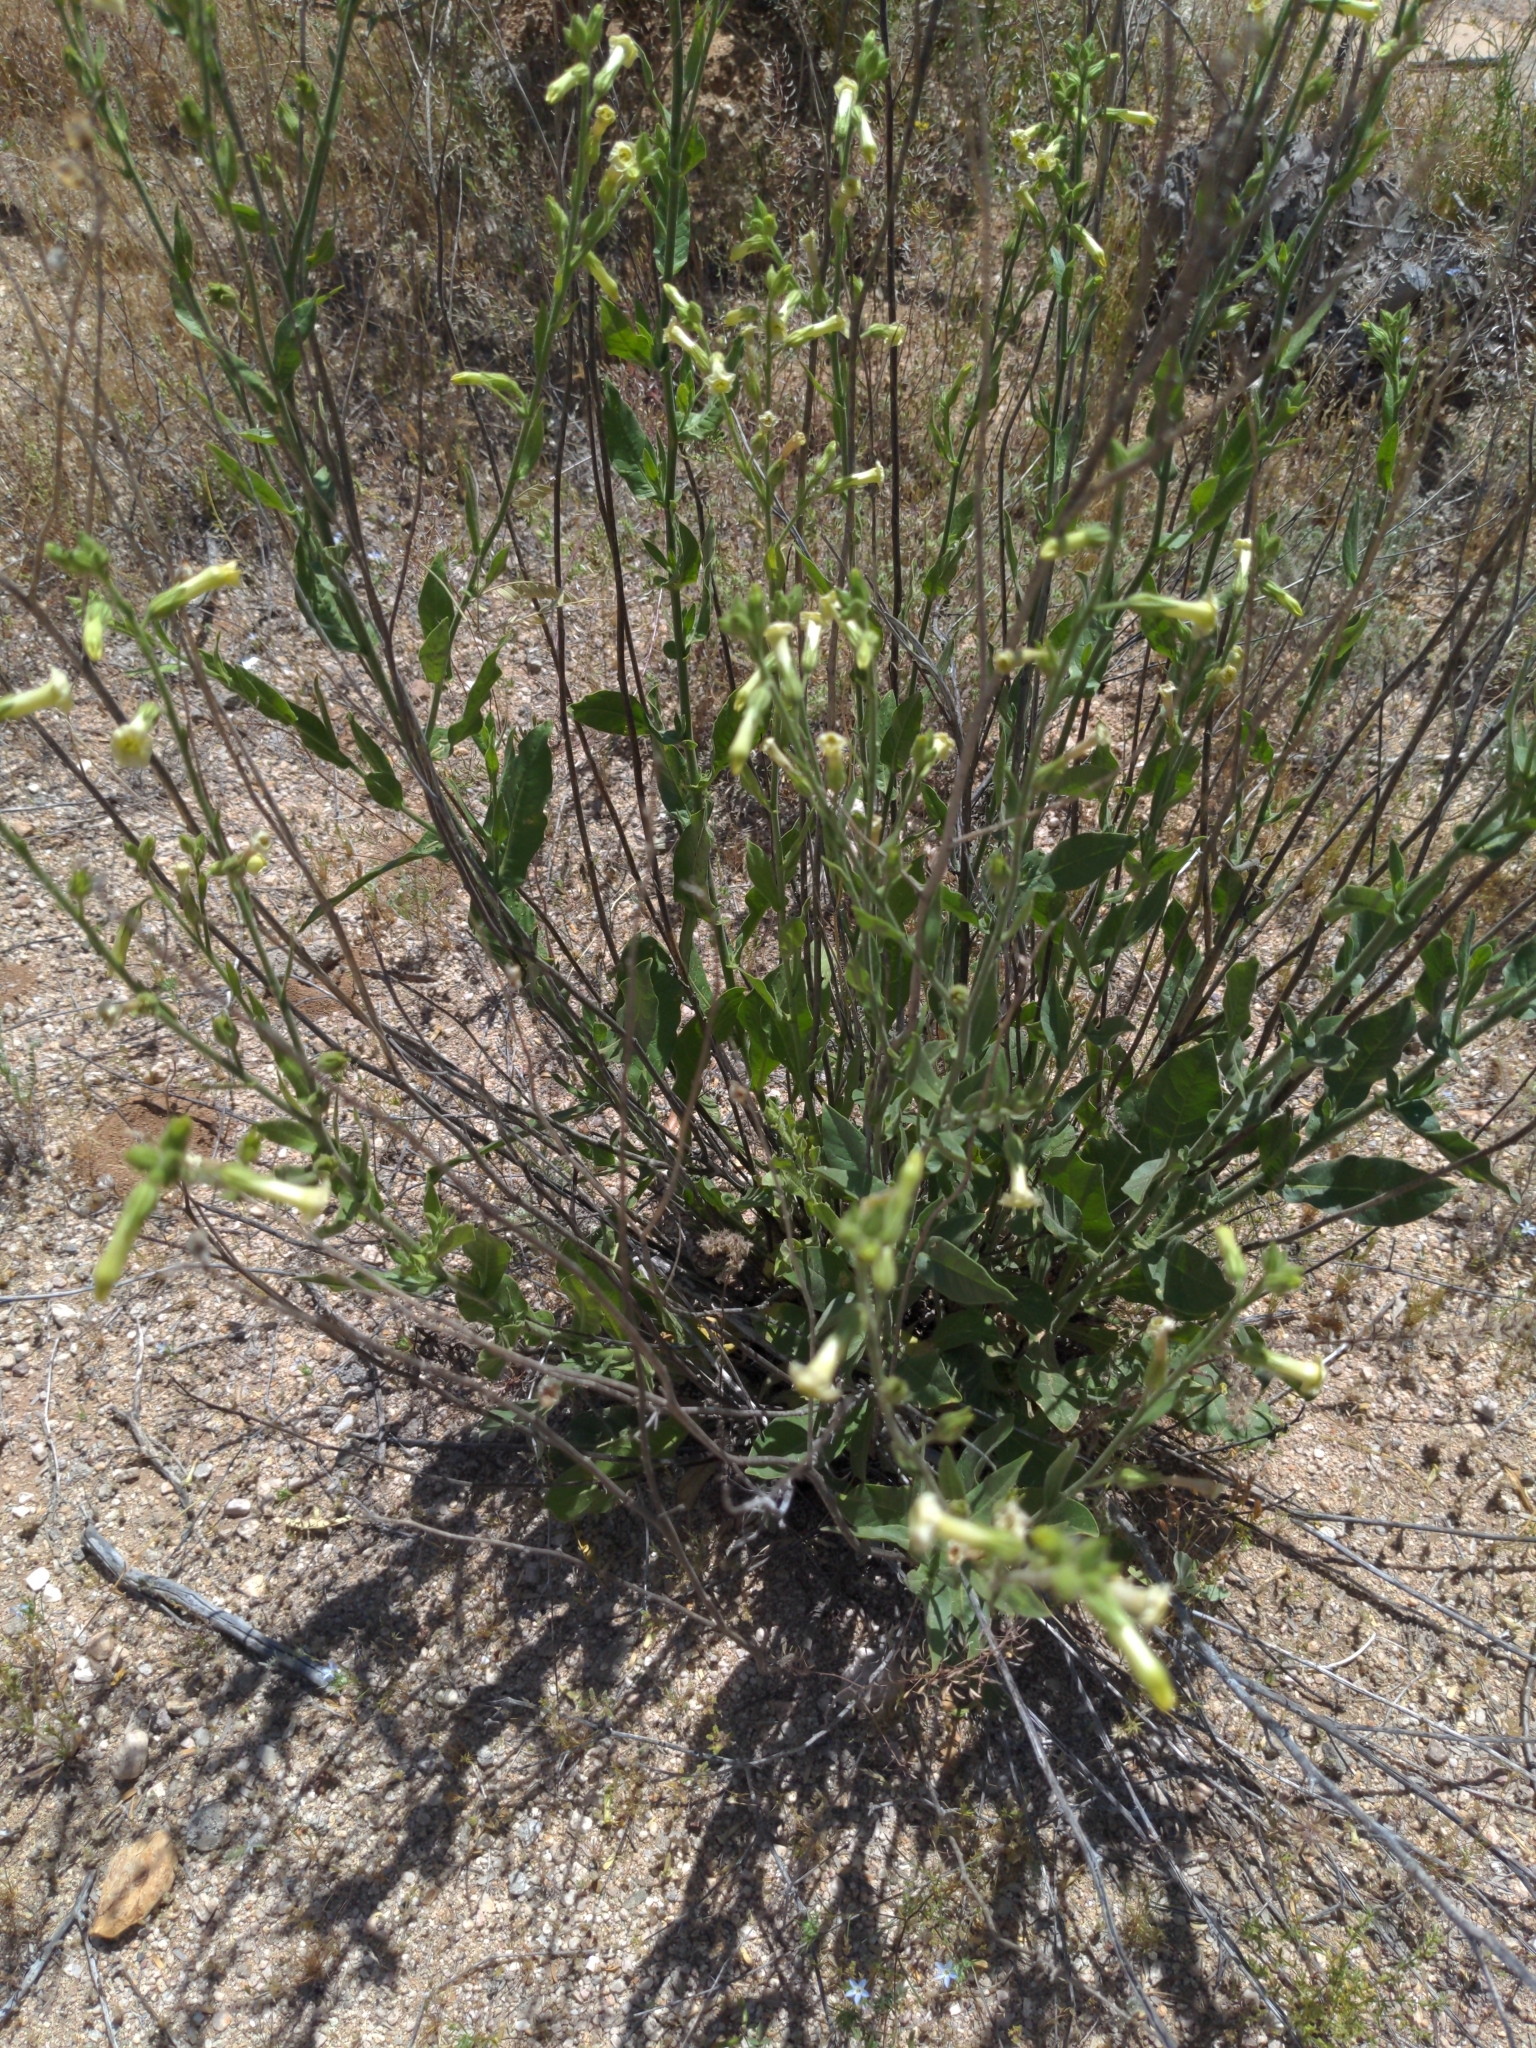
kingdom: Plantae
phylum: Tracheophyta
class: Magnoliopsida
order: Solanales
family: Solanaceae
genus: Nicotiana
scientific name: Nicotiana obtusifolia
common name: Desert tobacco
